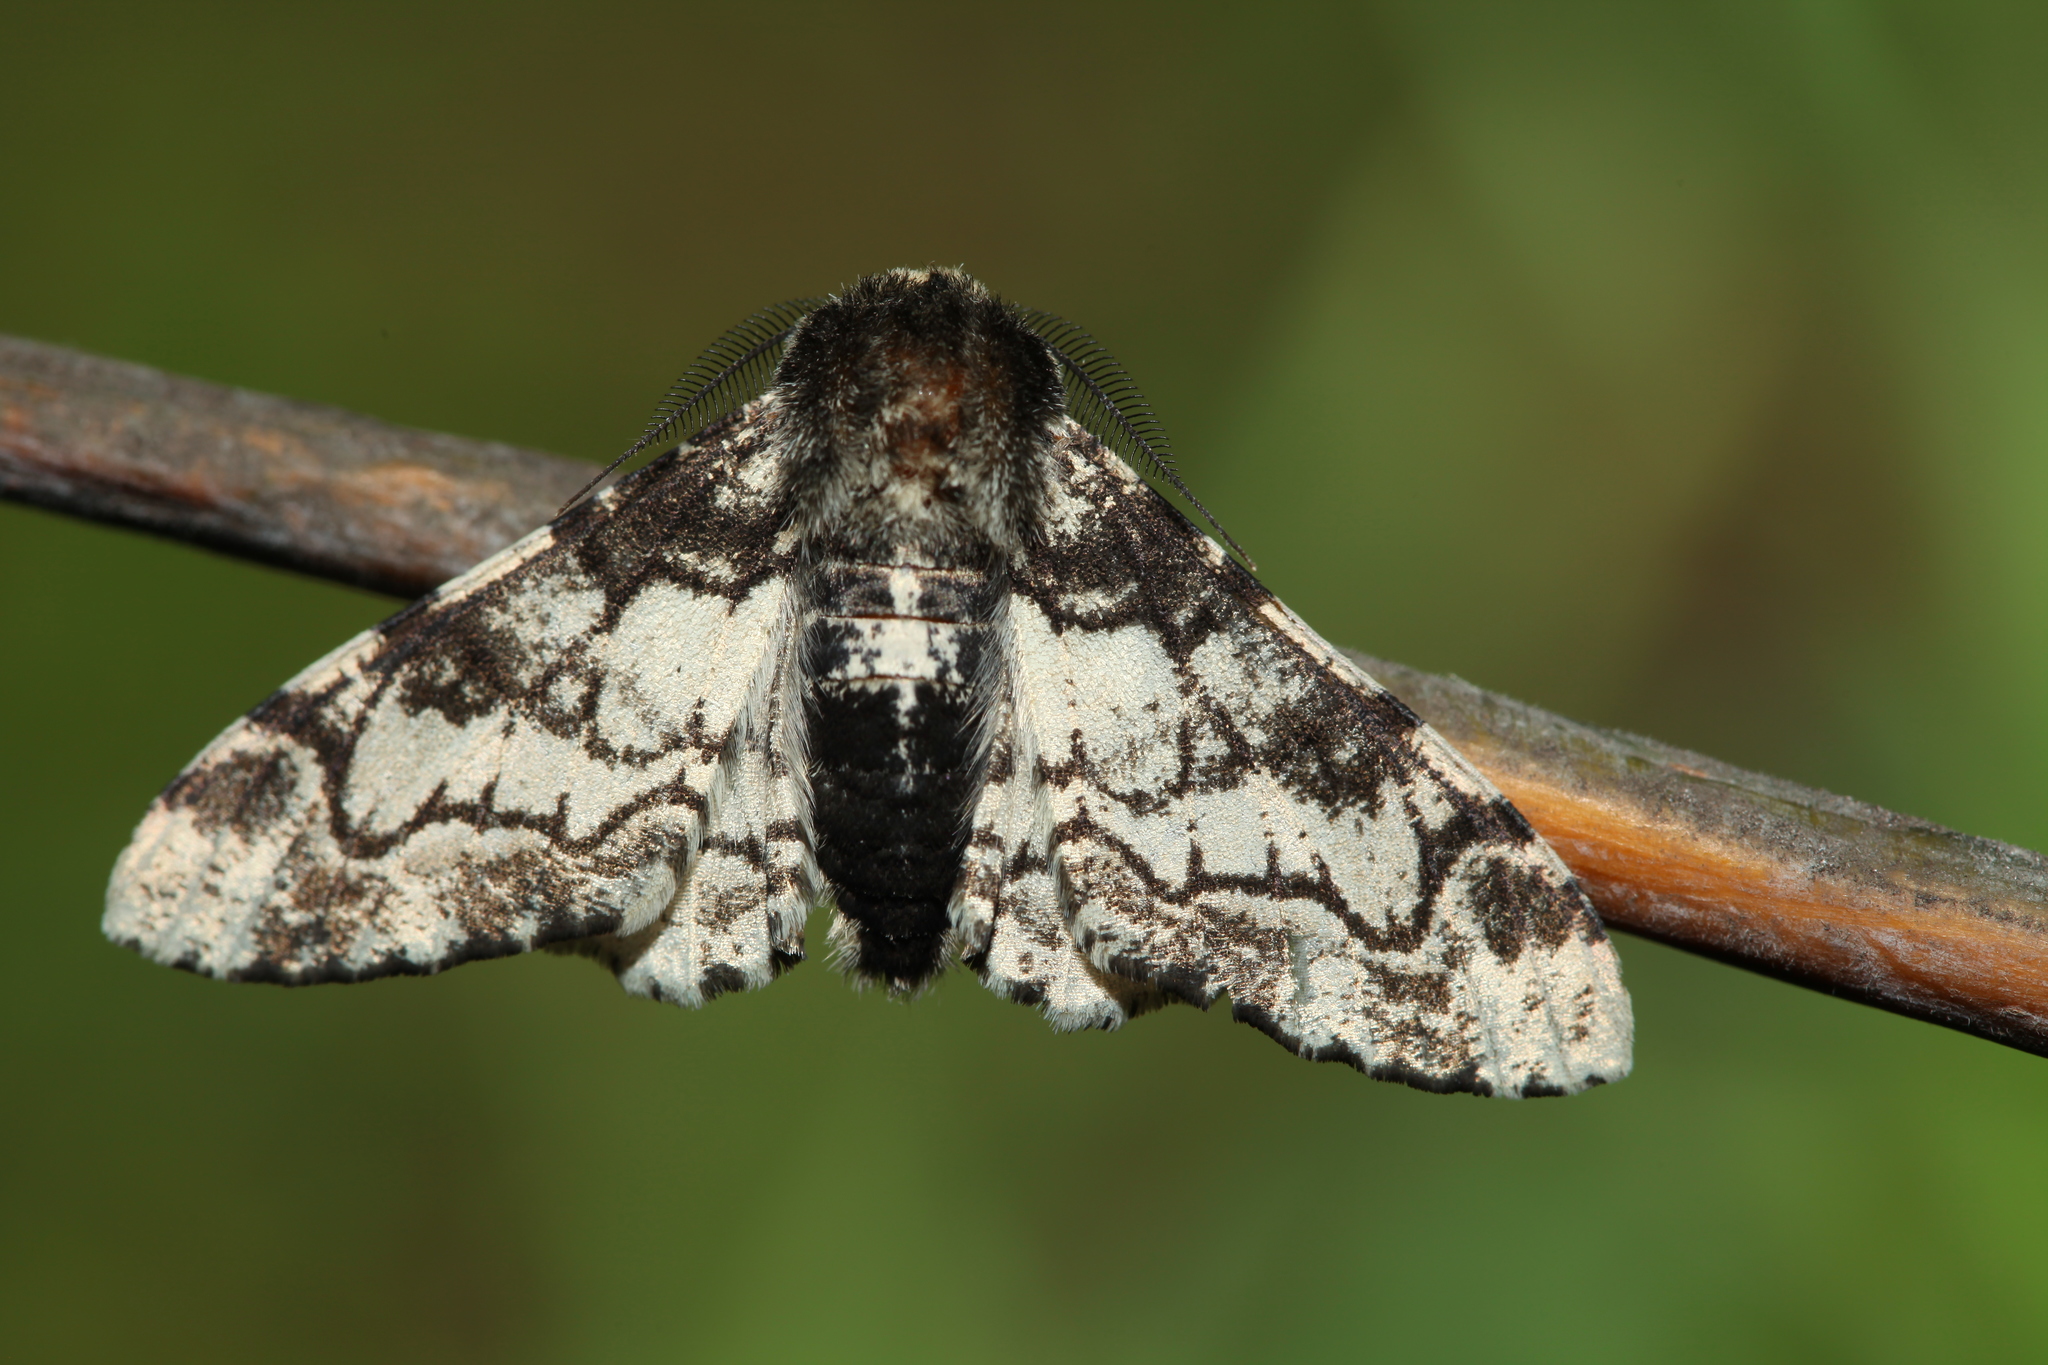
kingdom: Animalia
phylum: Arthropoda
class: Insecta
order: Lepidoptera
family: Geometridae
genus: Biston
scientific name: Biston betularia
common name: Peppered moth
